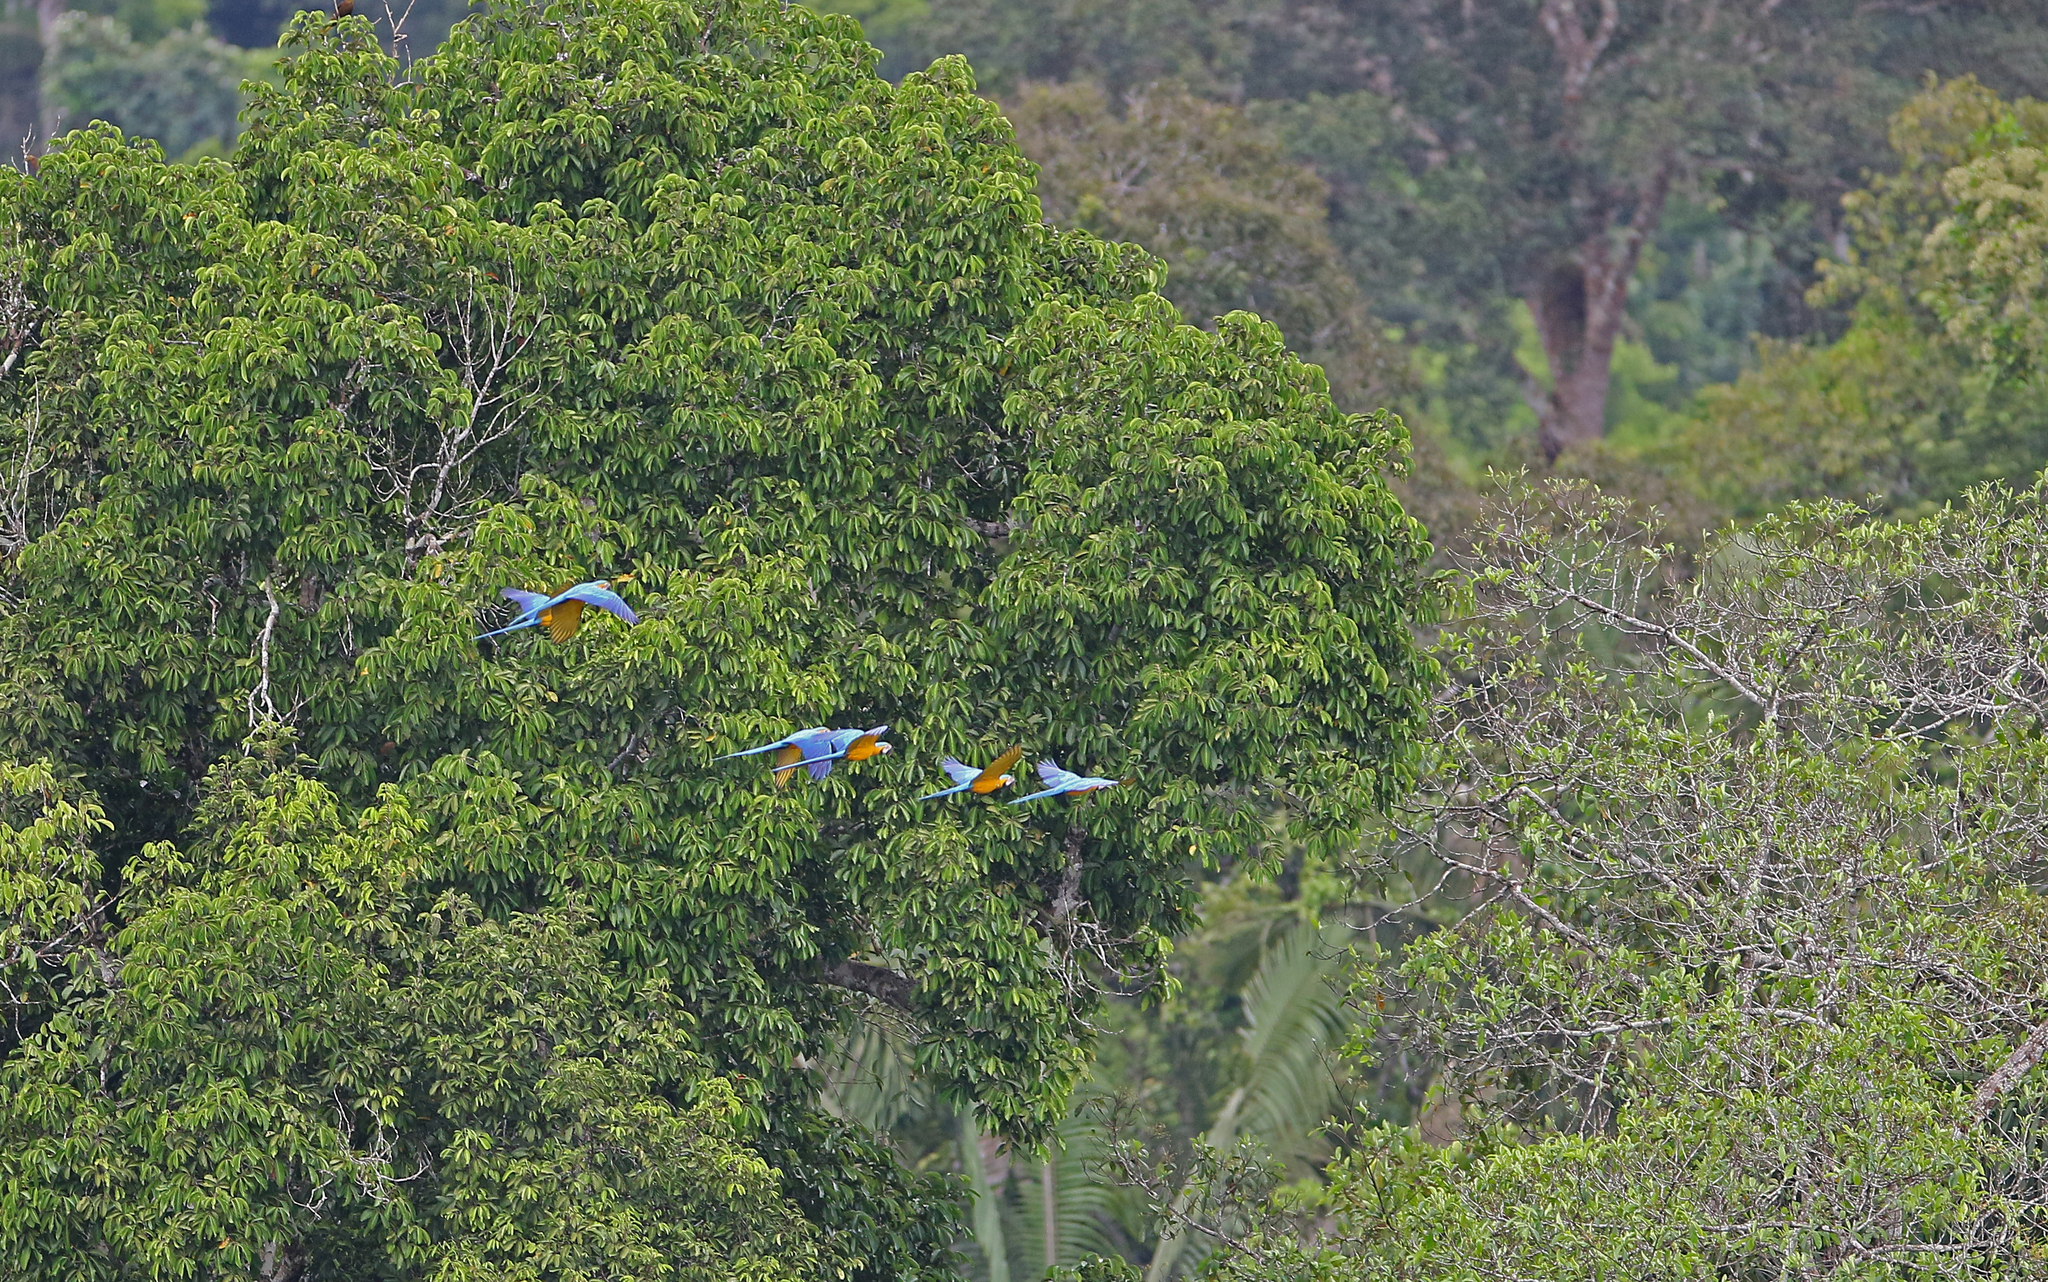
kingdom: Animalia
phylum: Chordata
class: Aves
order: Psittaciformes
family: Psittacidae
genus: Ara
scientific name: Ara ararauna
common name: Blue-and-yellow macaw
